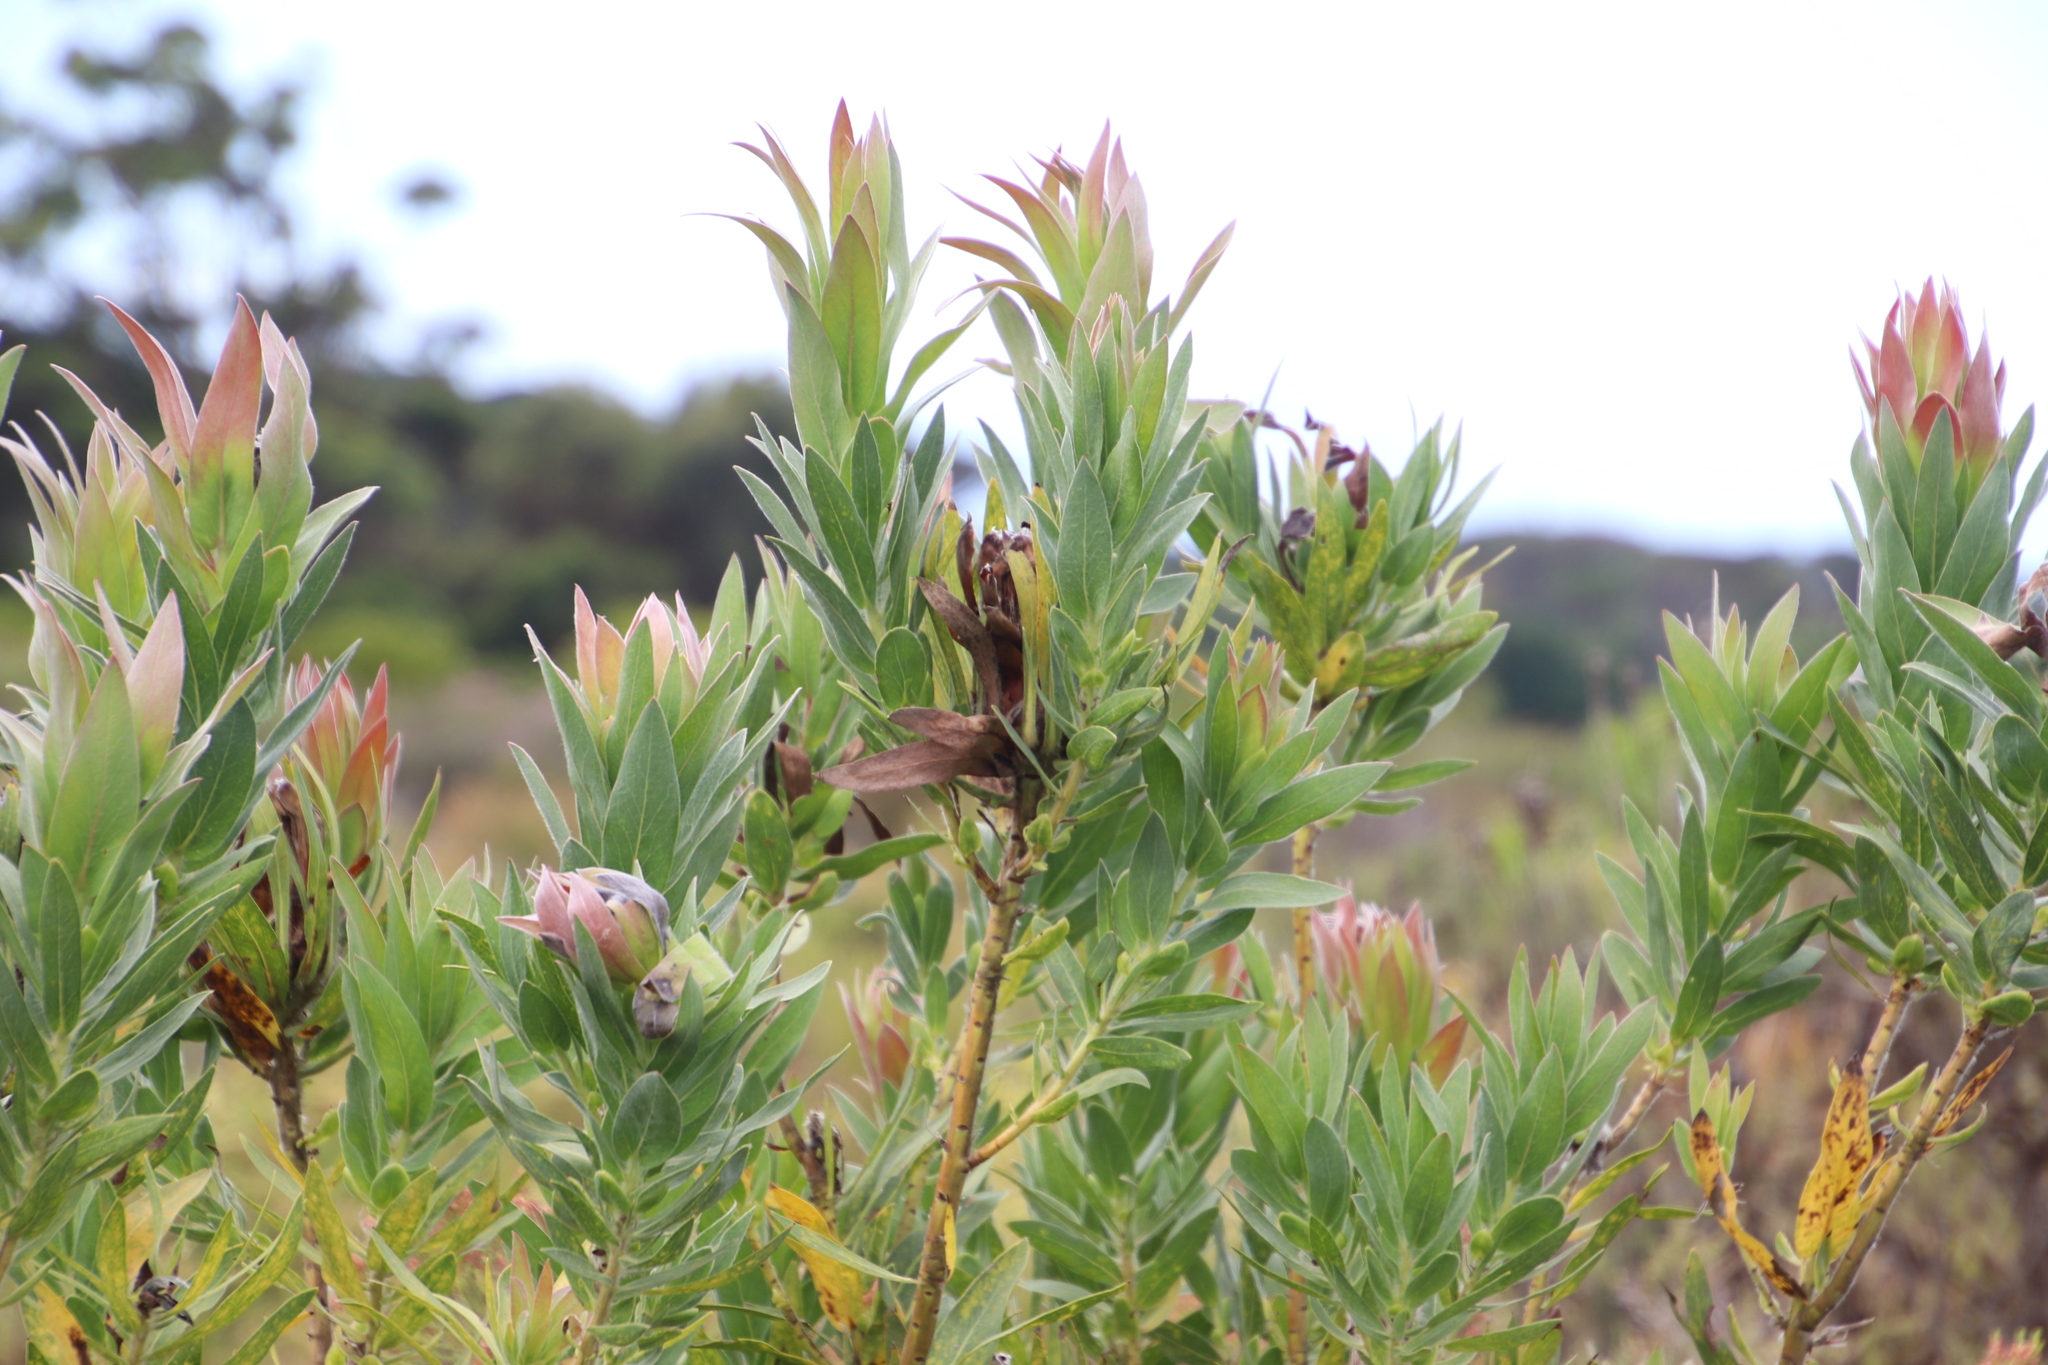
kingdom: Plantae
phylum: Tracheophyta
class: Magnoliopsida
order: Proteales
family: Proteaceae
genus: Protea
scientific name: Protea coronata
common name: Green sugarbush
